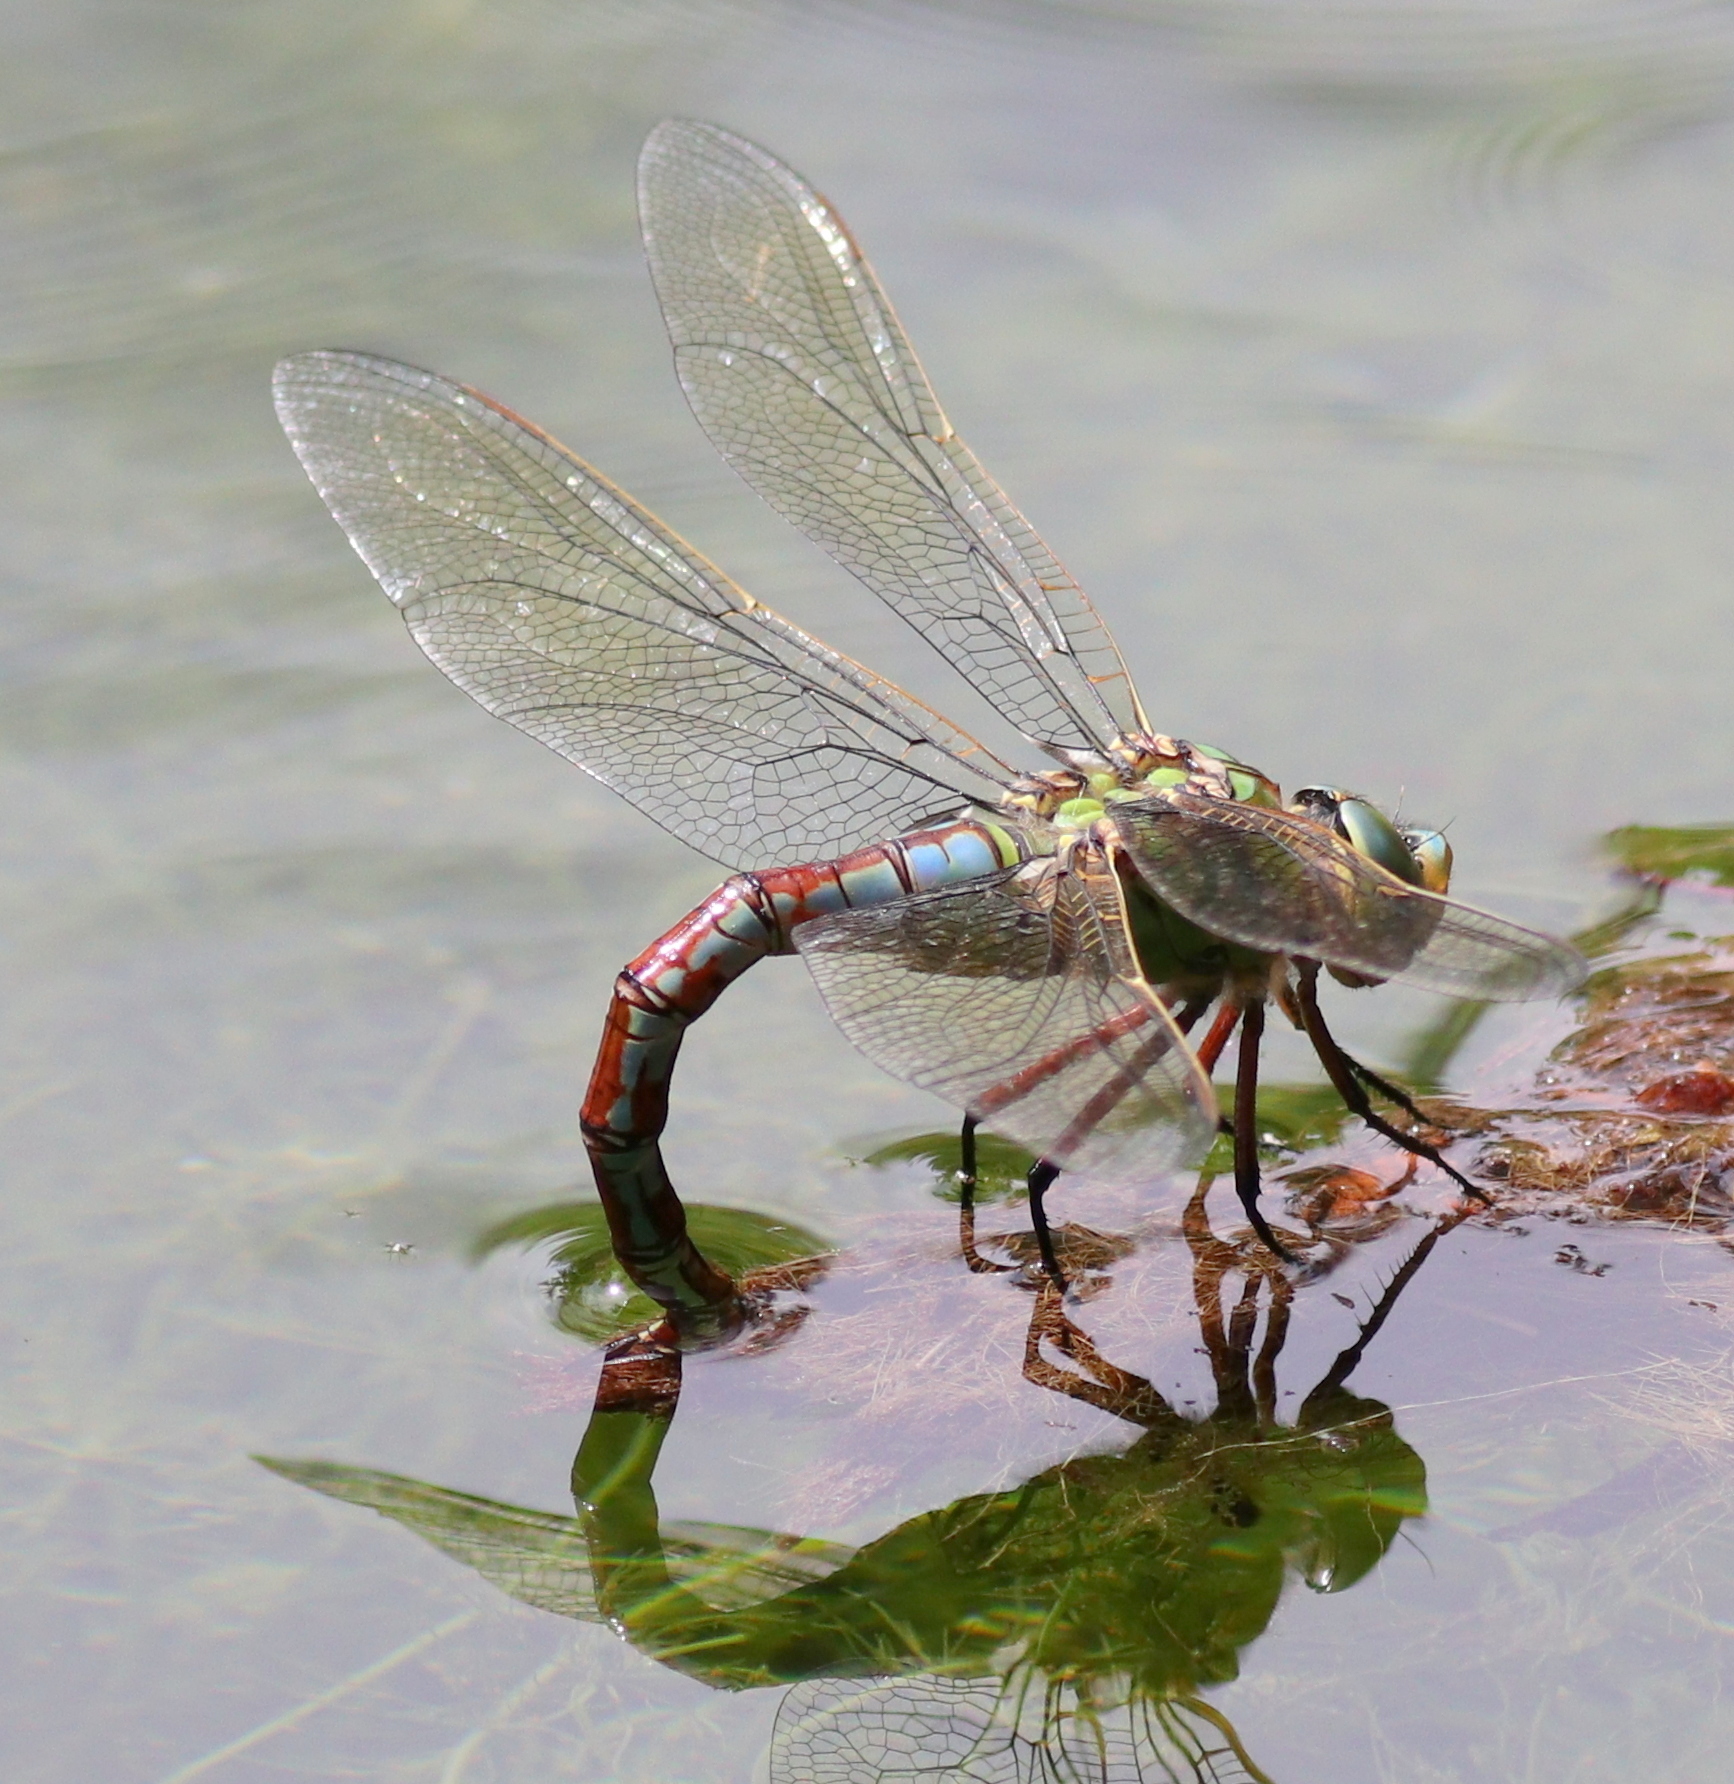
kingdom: Animalia
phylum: Arthropoda
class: Insecta
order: Odonata
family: Aeshnidae
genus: Anax
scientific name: Anax imperator
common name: Emperor dragonfly
